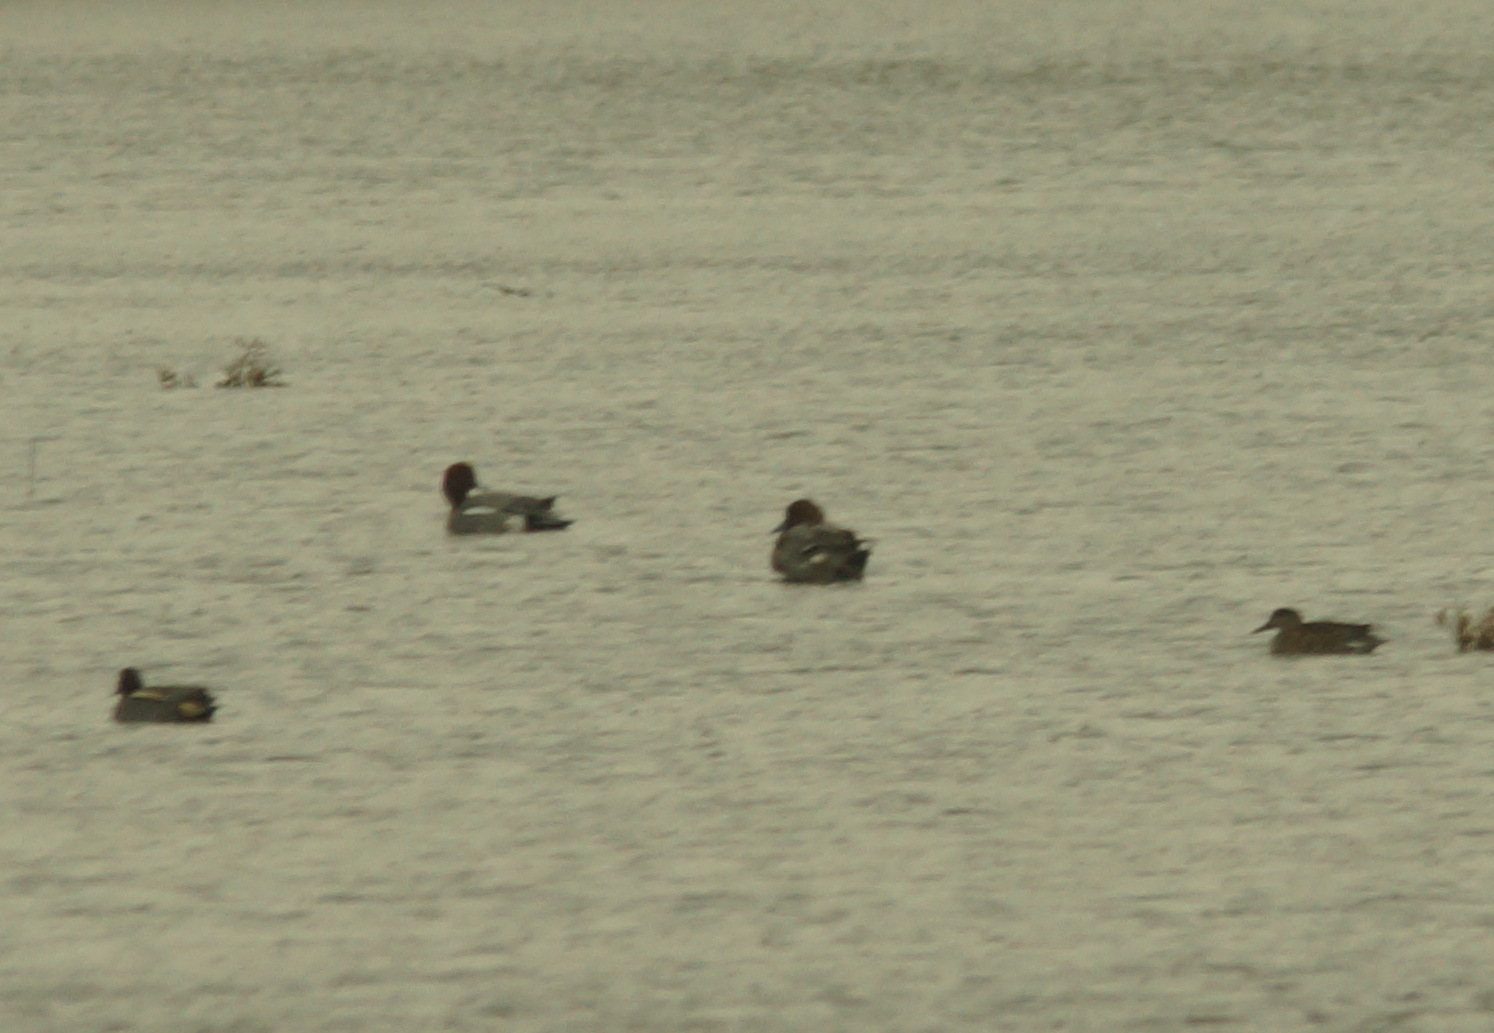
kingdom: Animalia
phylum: Chordata
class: Aves
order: Anseriformes
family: Anatidae
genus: Mareca
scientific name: Mareca penelope
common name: Eurasian wigeon
